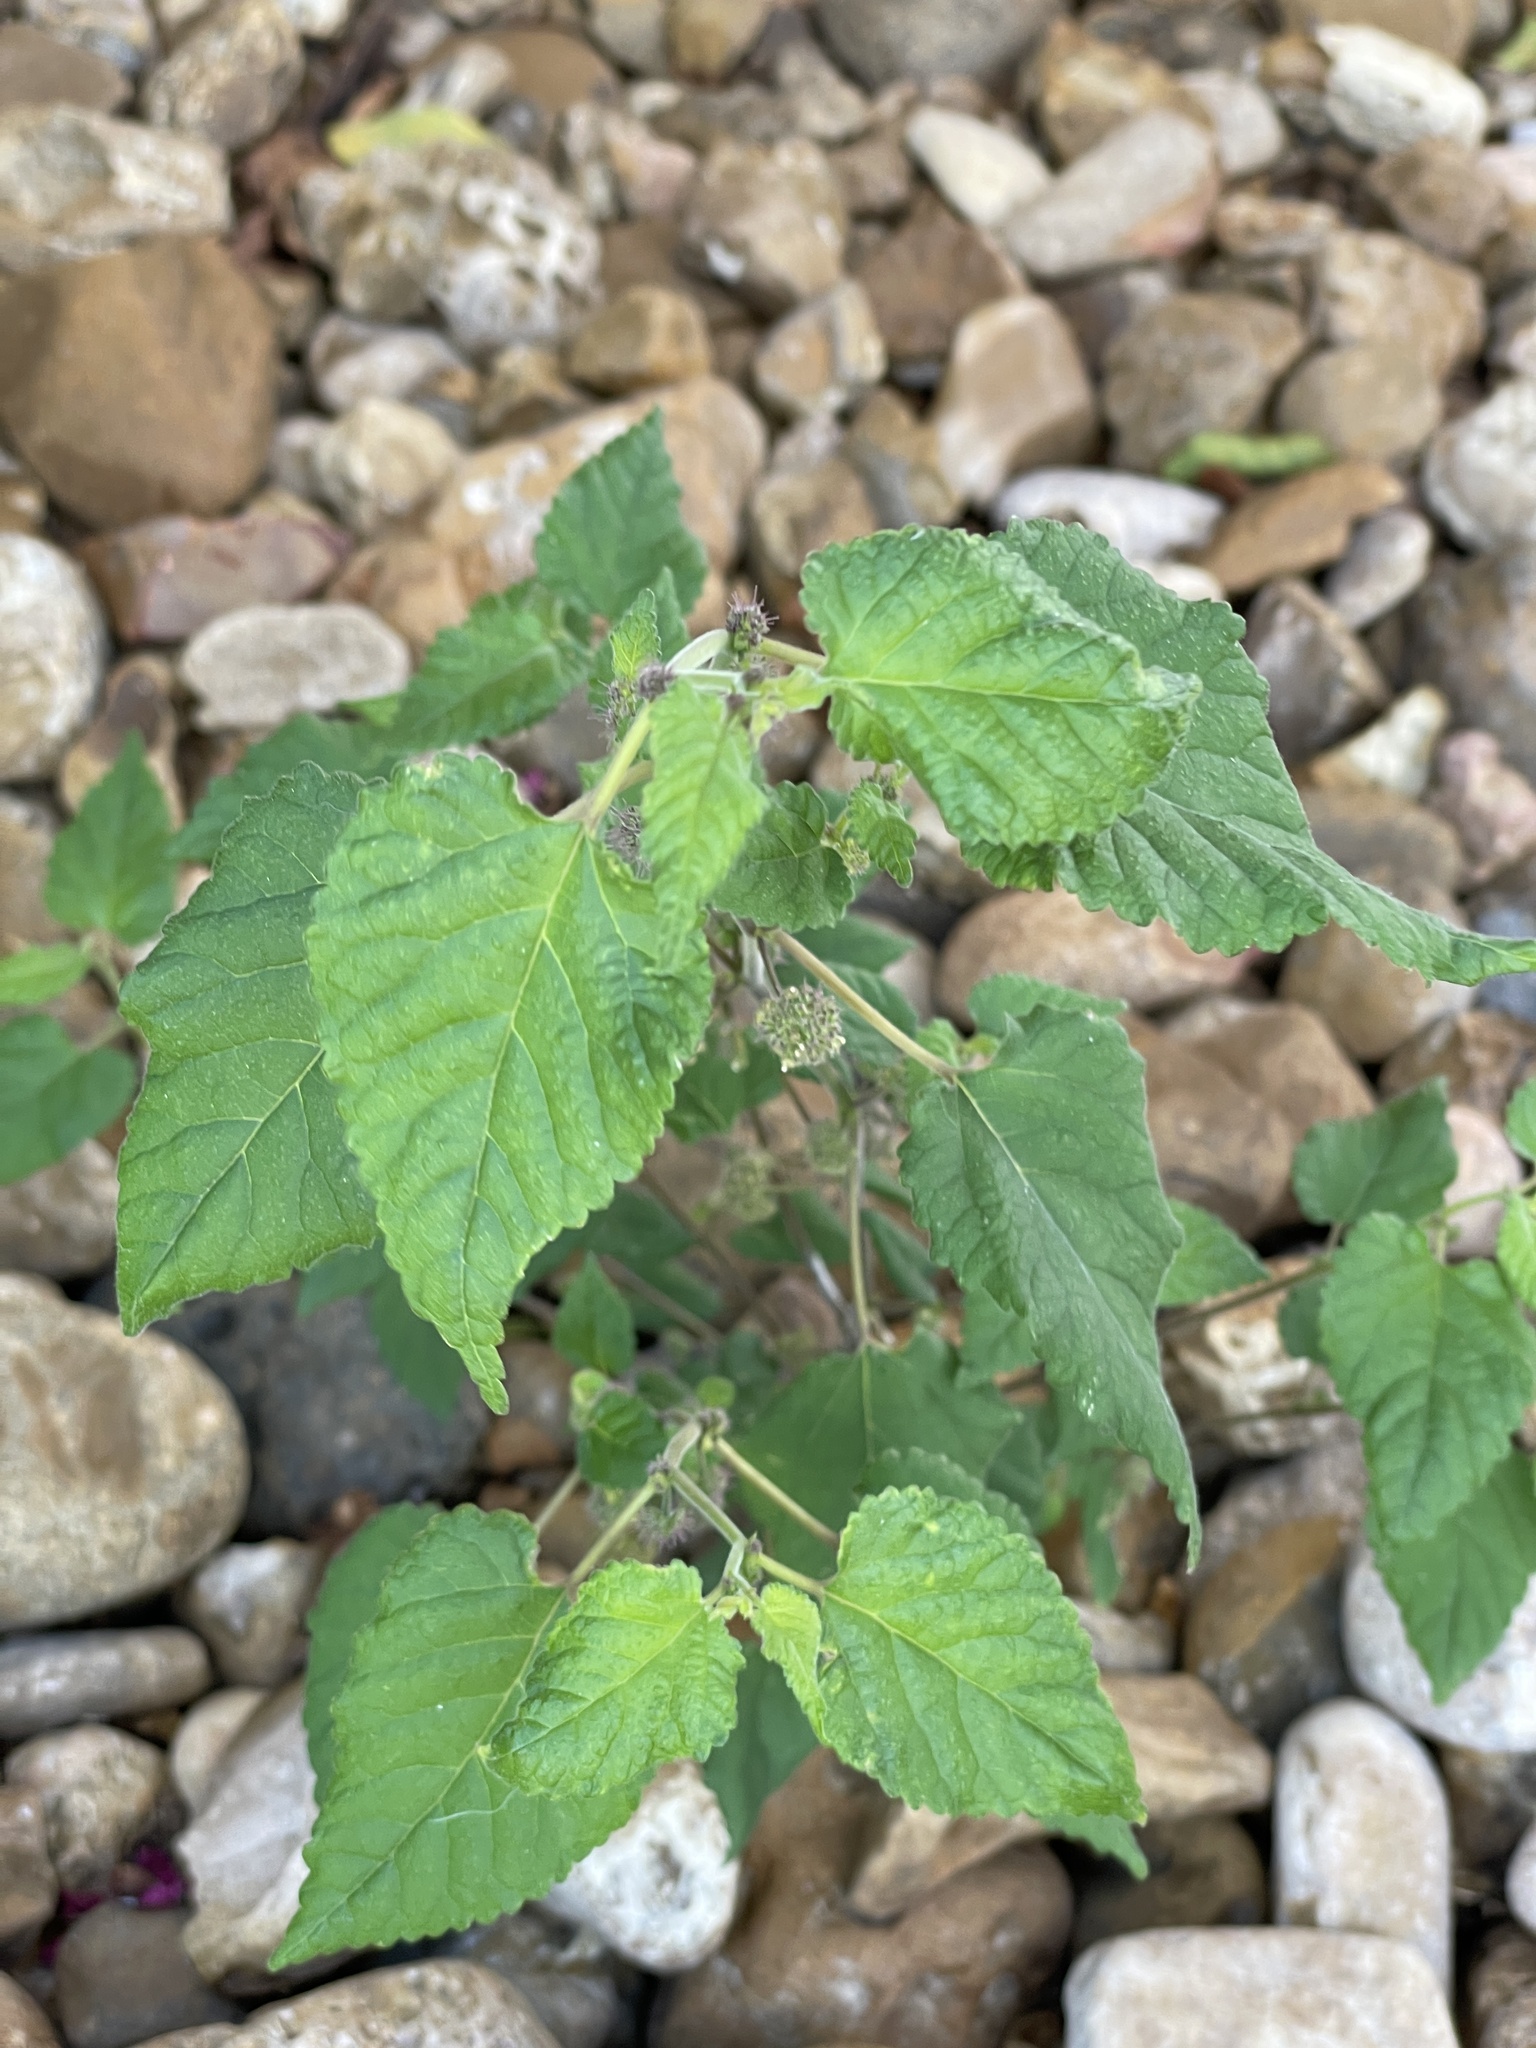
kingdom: Plantae
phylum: Tracheophyta
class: Magnoliopsida
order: Rosales
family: Moraceae
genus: Fatoua
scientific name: Fatoua villosa
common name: Hairy crabweed
